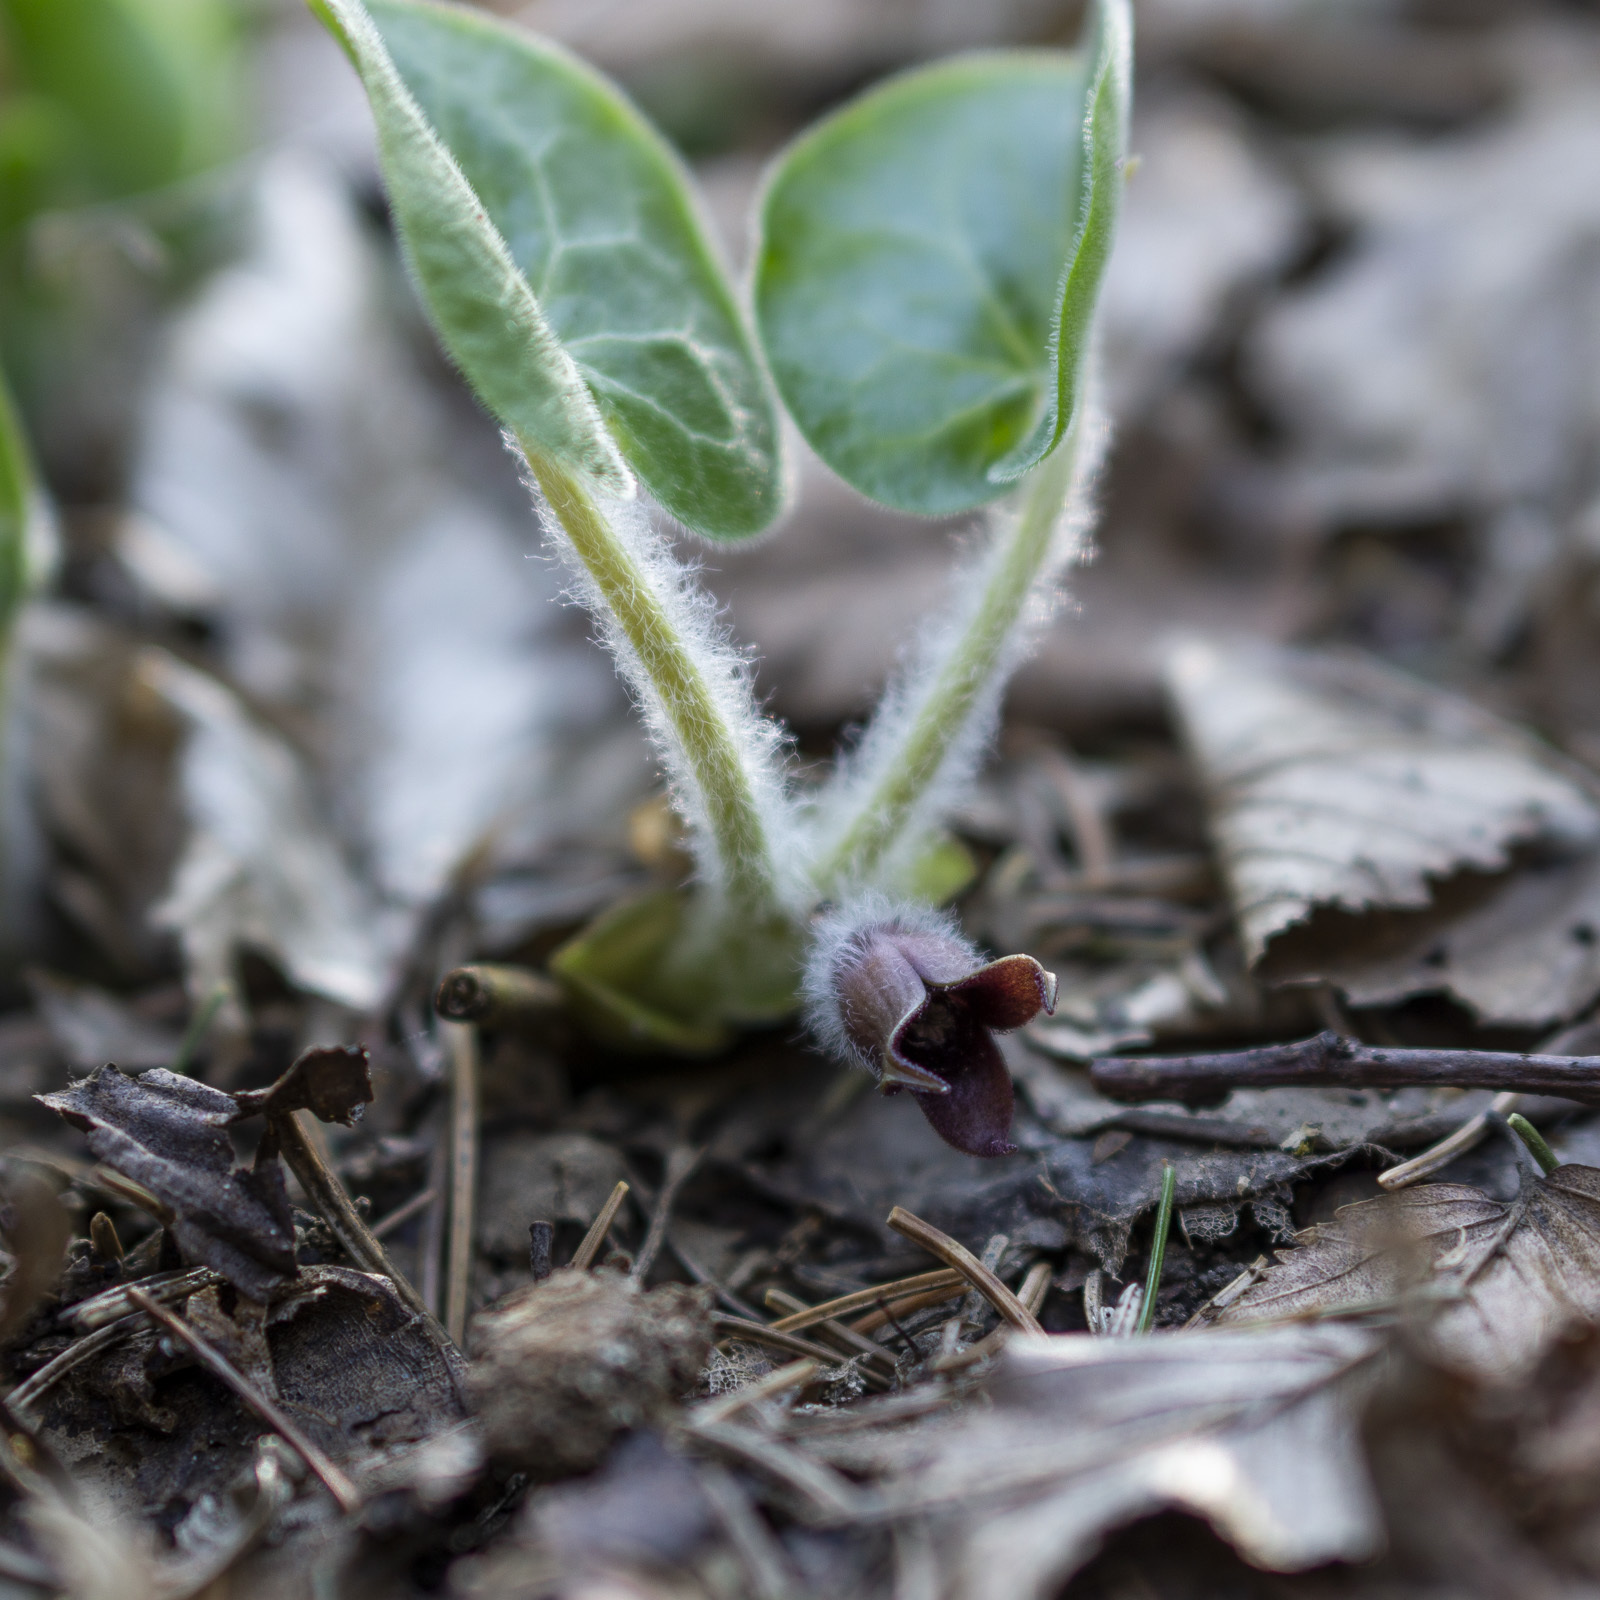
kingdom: Plantae
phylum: Tracheophyta
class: Magnoliopsida
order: Piperales
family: Aristolochiaceae
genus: Asarum
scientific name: Asarum europaeum
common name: Asarabacca
